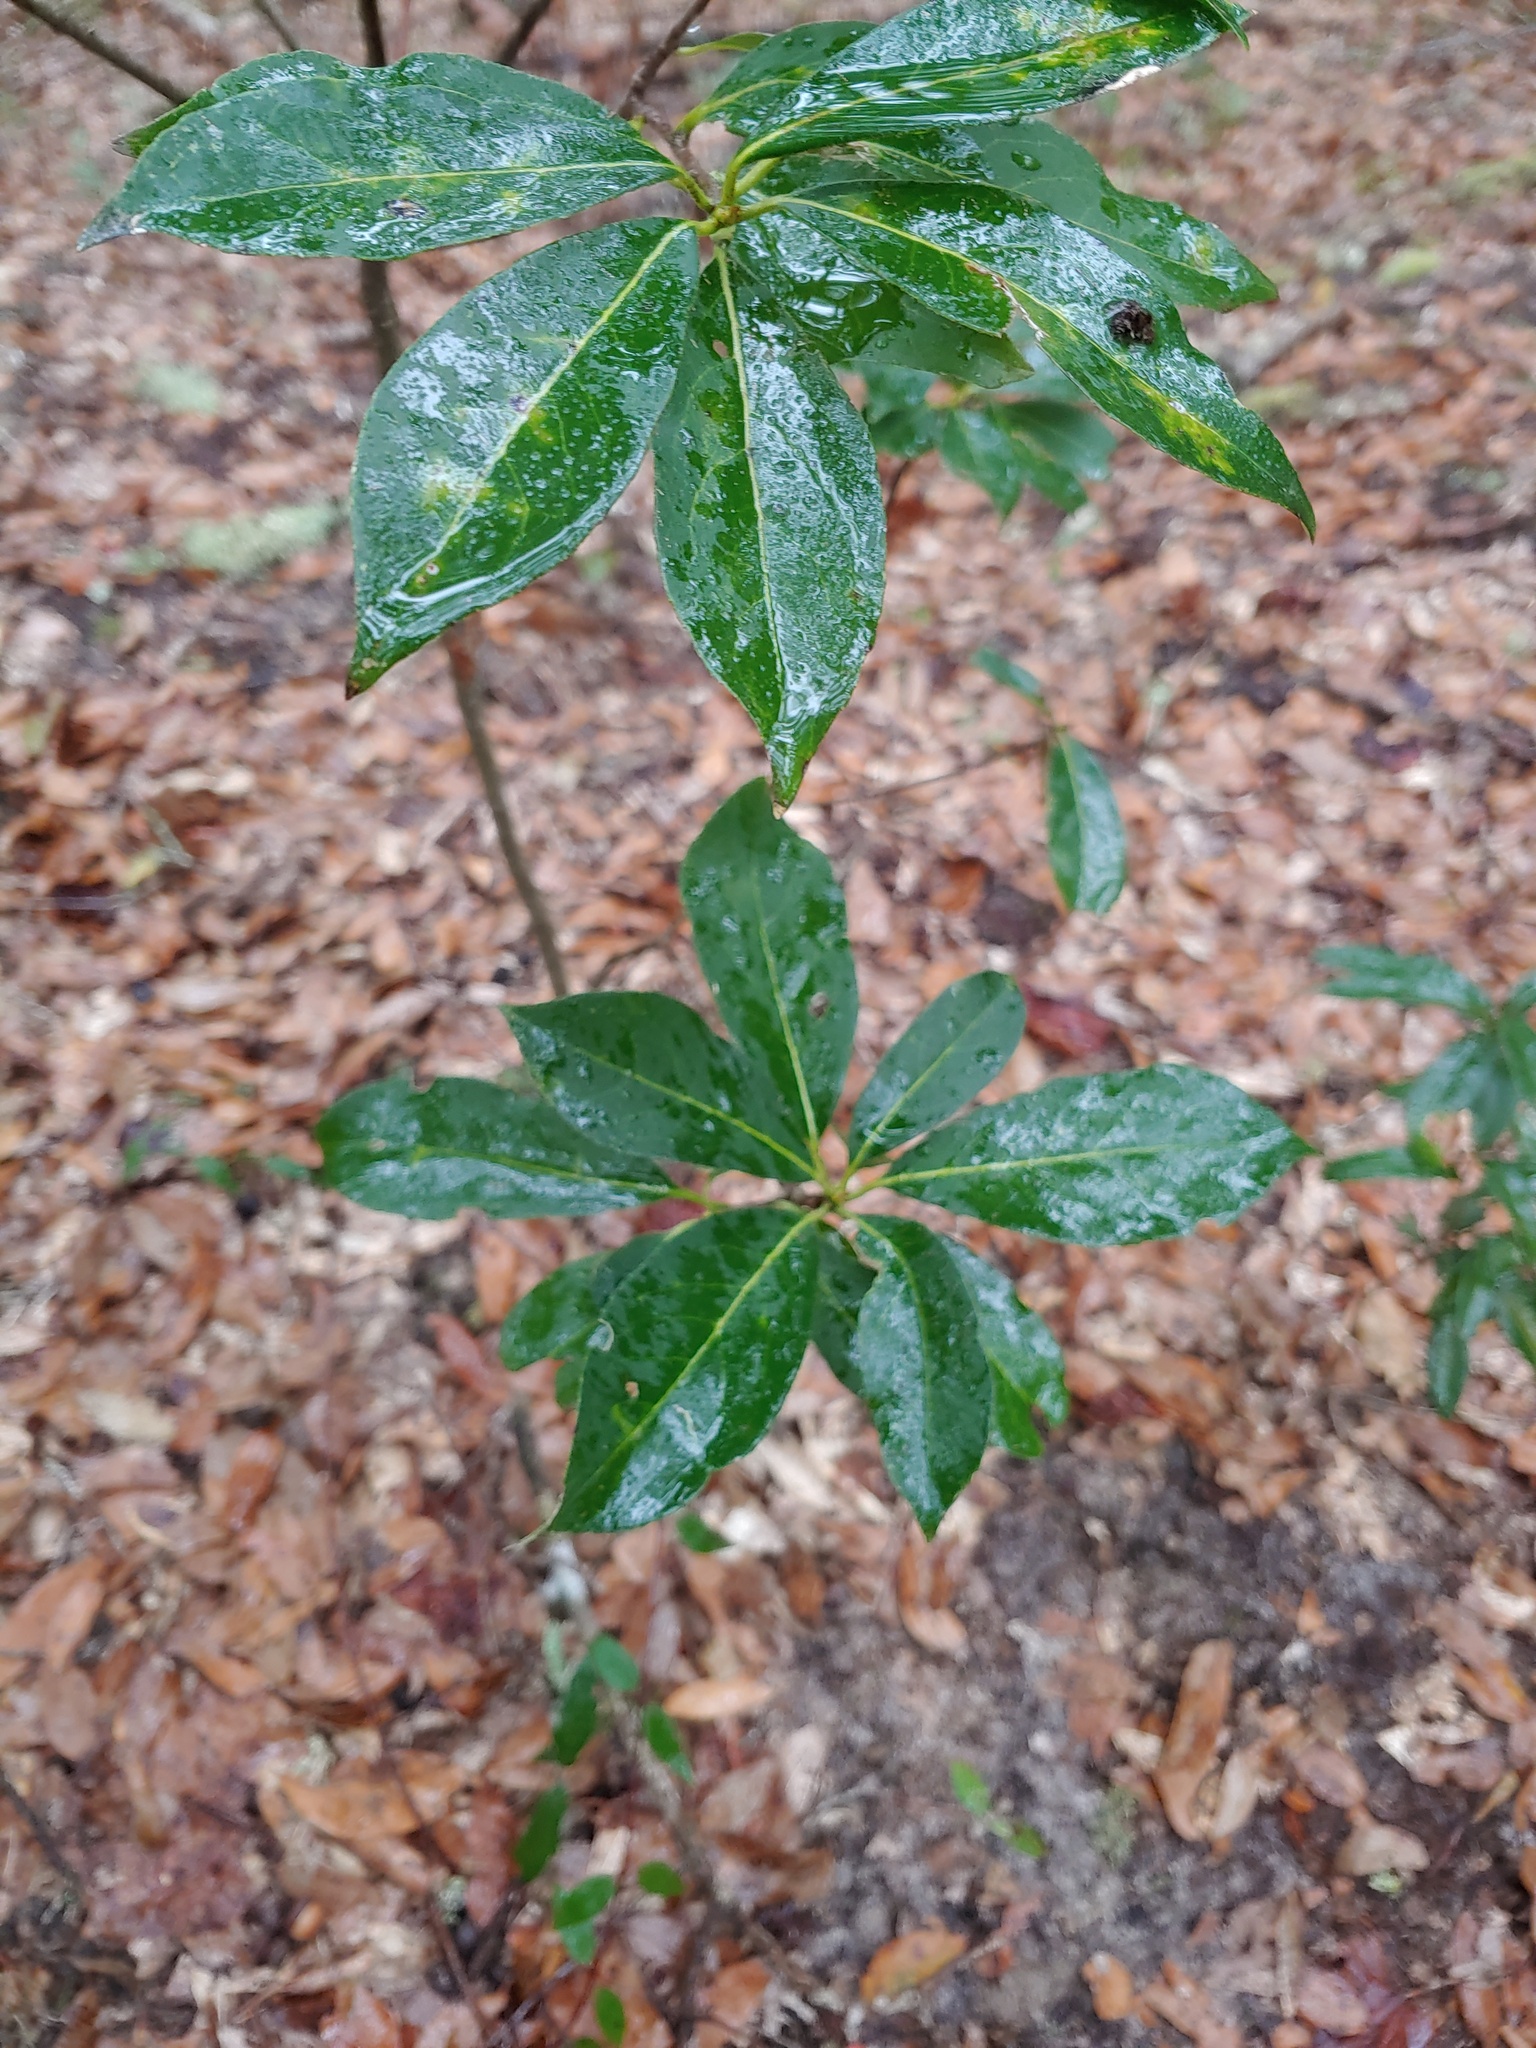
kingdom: Plantae
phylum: Tracheophyta
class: Magnoliopsida
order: Ericales
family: Symplocaceae
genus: Symplocos
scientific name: Symplocos tinctoria
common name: Horse-sugar
